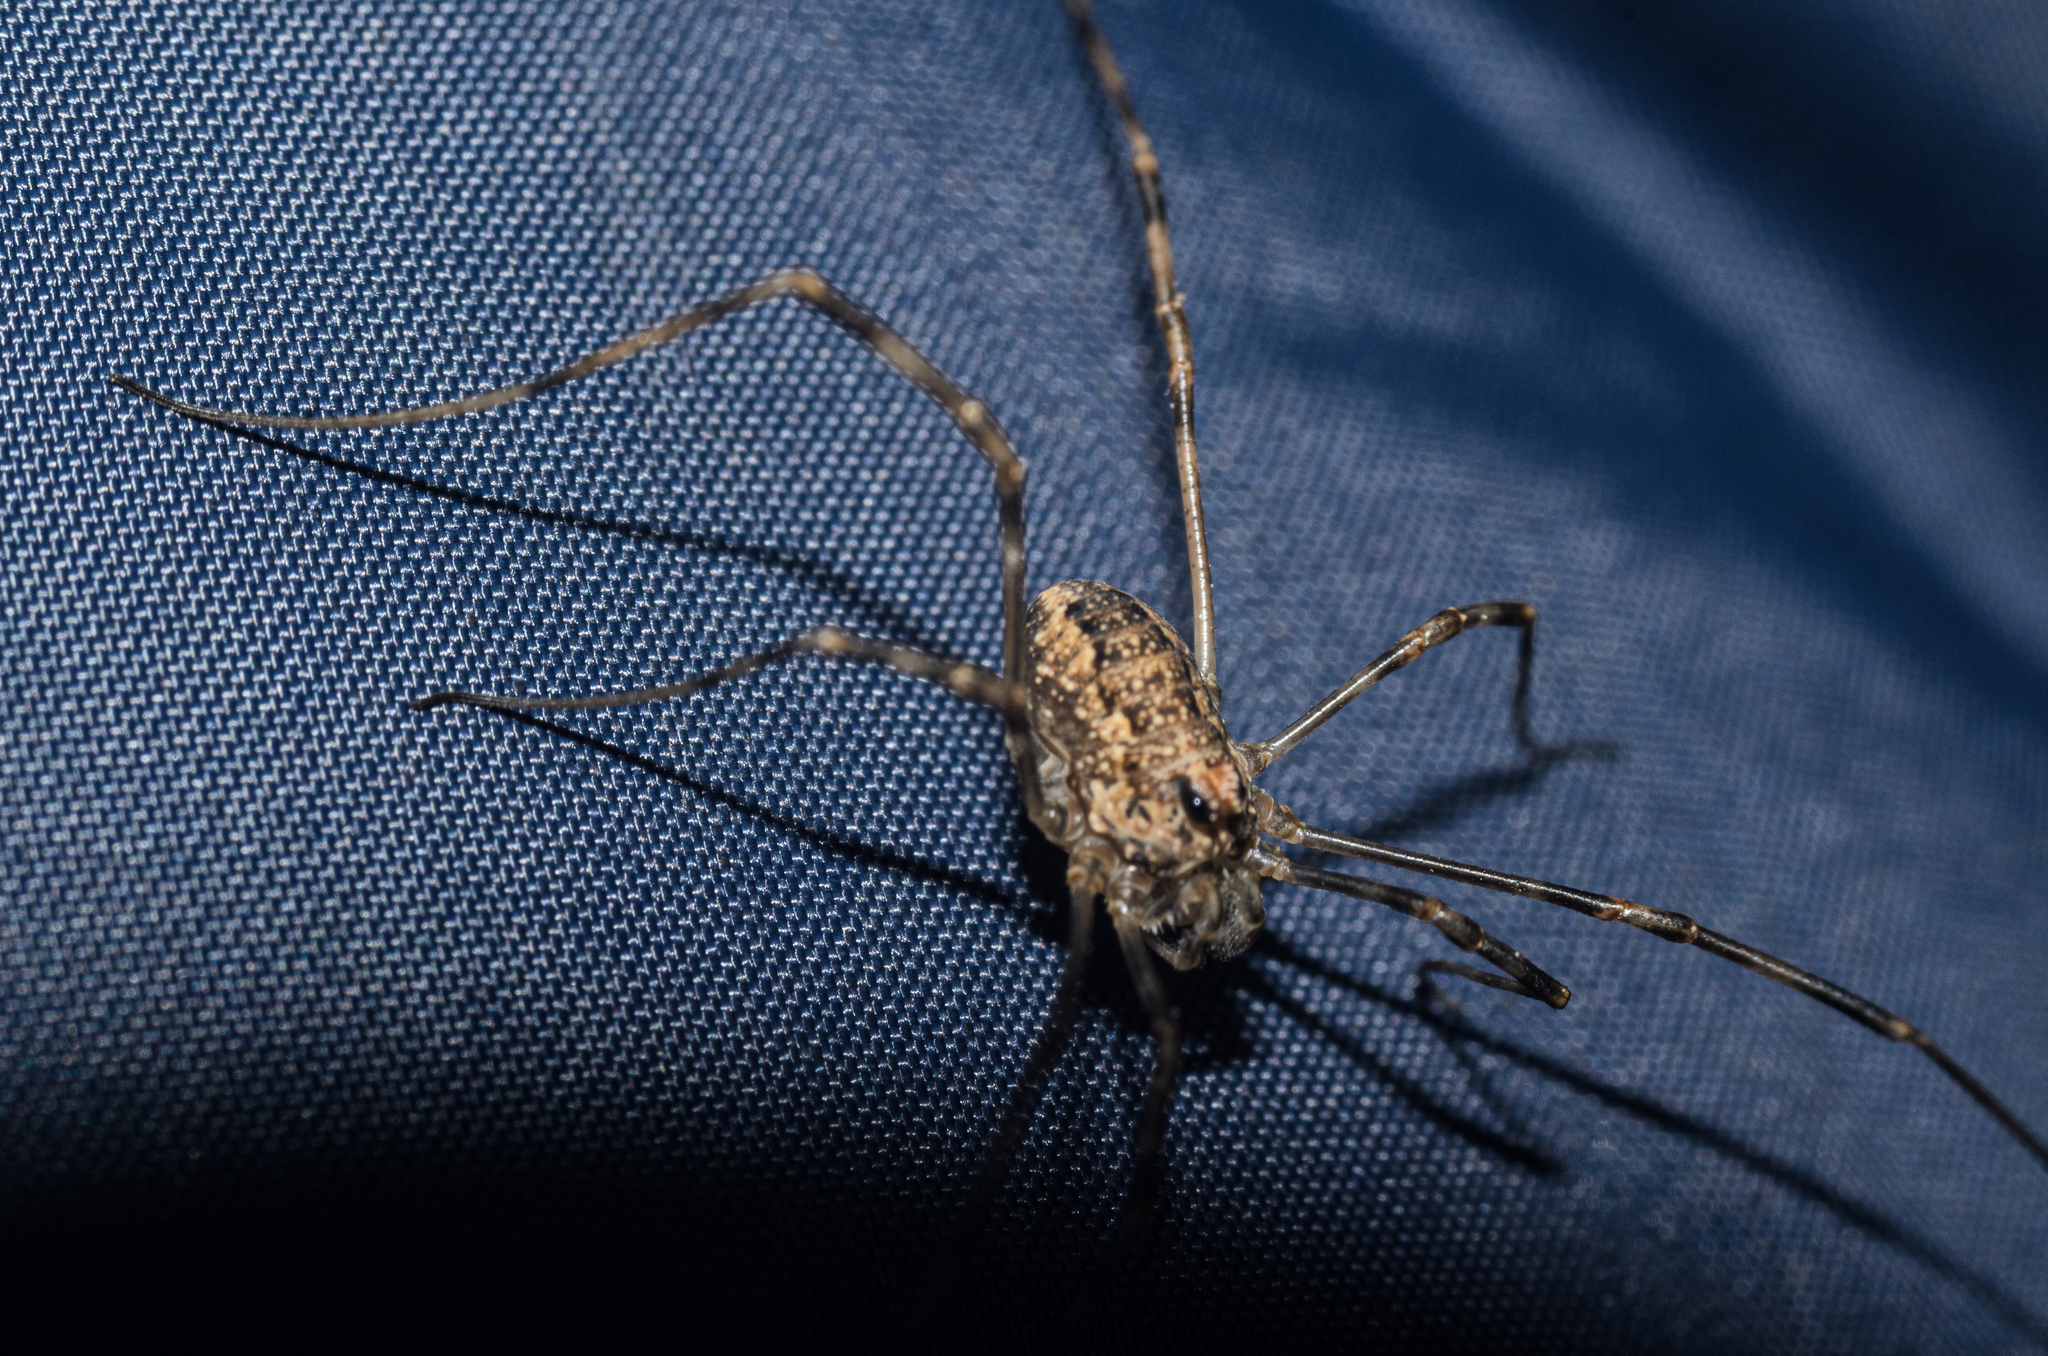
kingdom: Animalia
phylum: Arthropoda
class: Arachnida
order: Opiliones
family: Phalangiidae
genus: Rilaena
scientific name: Rilaena triangularis
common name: Spring harvestman
